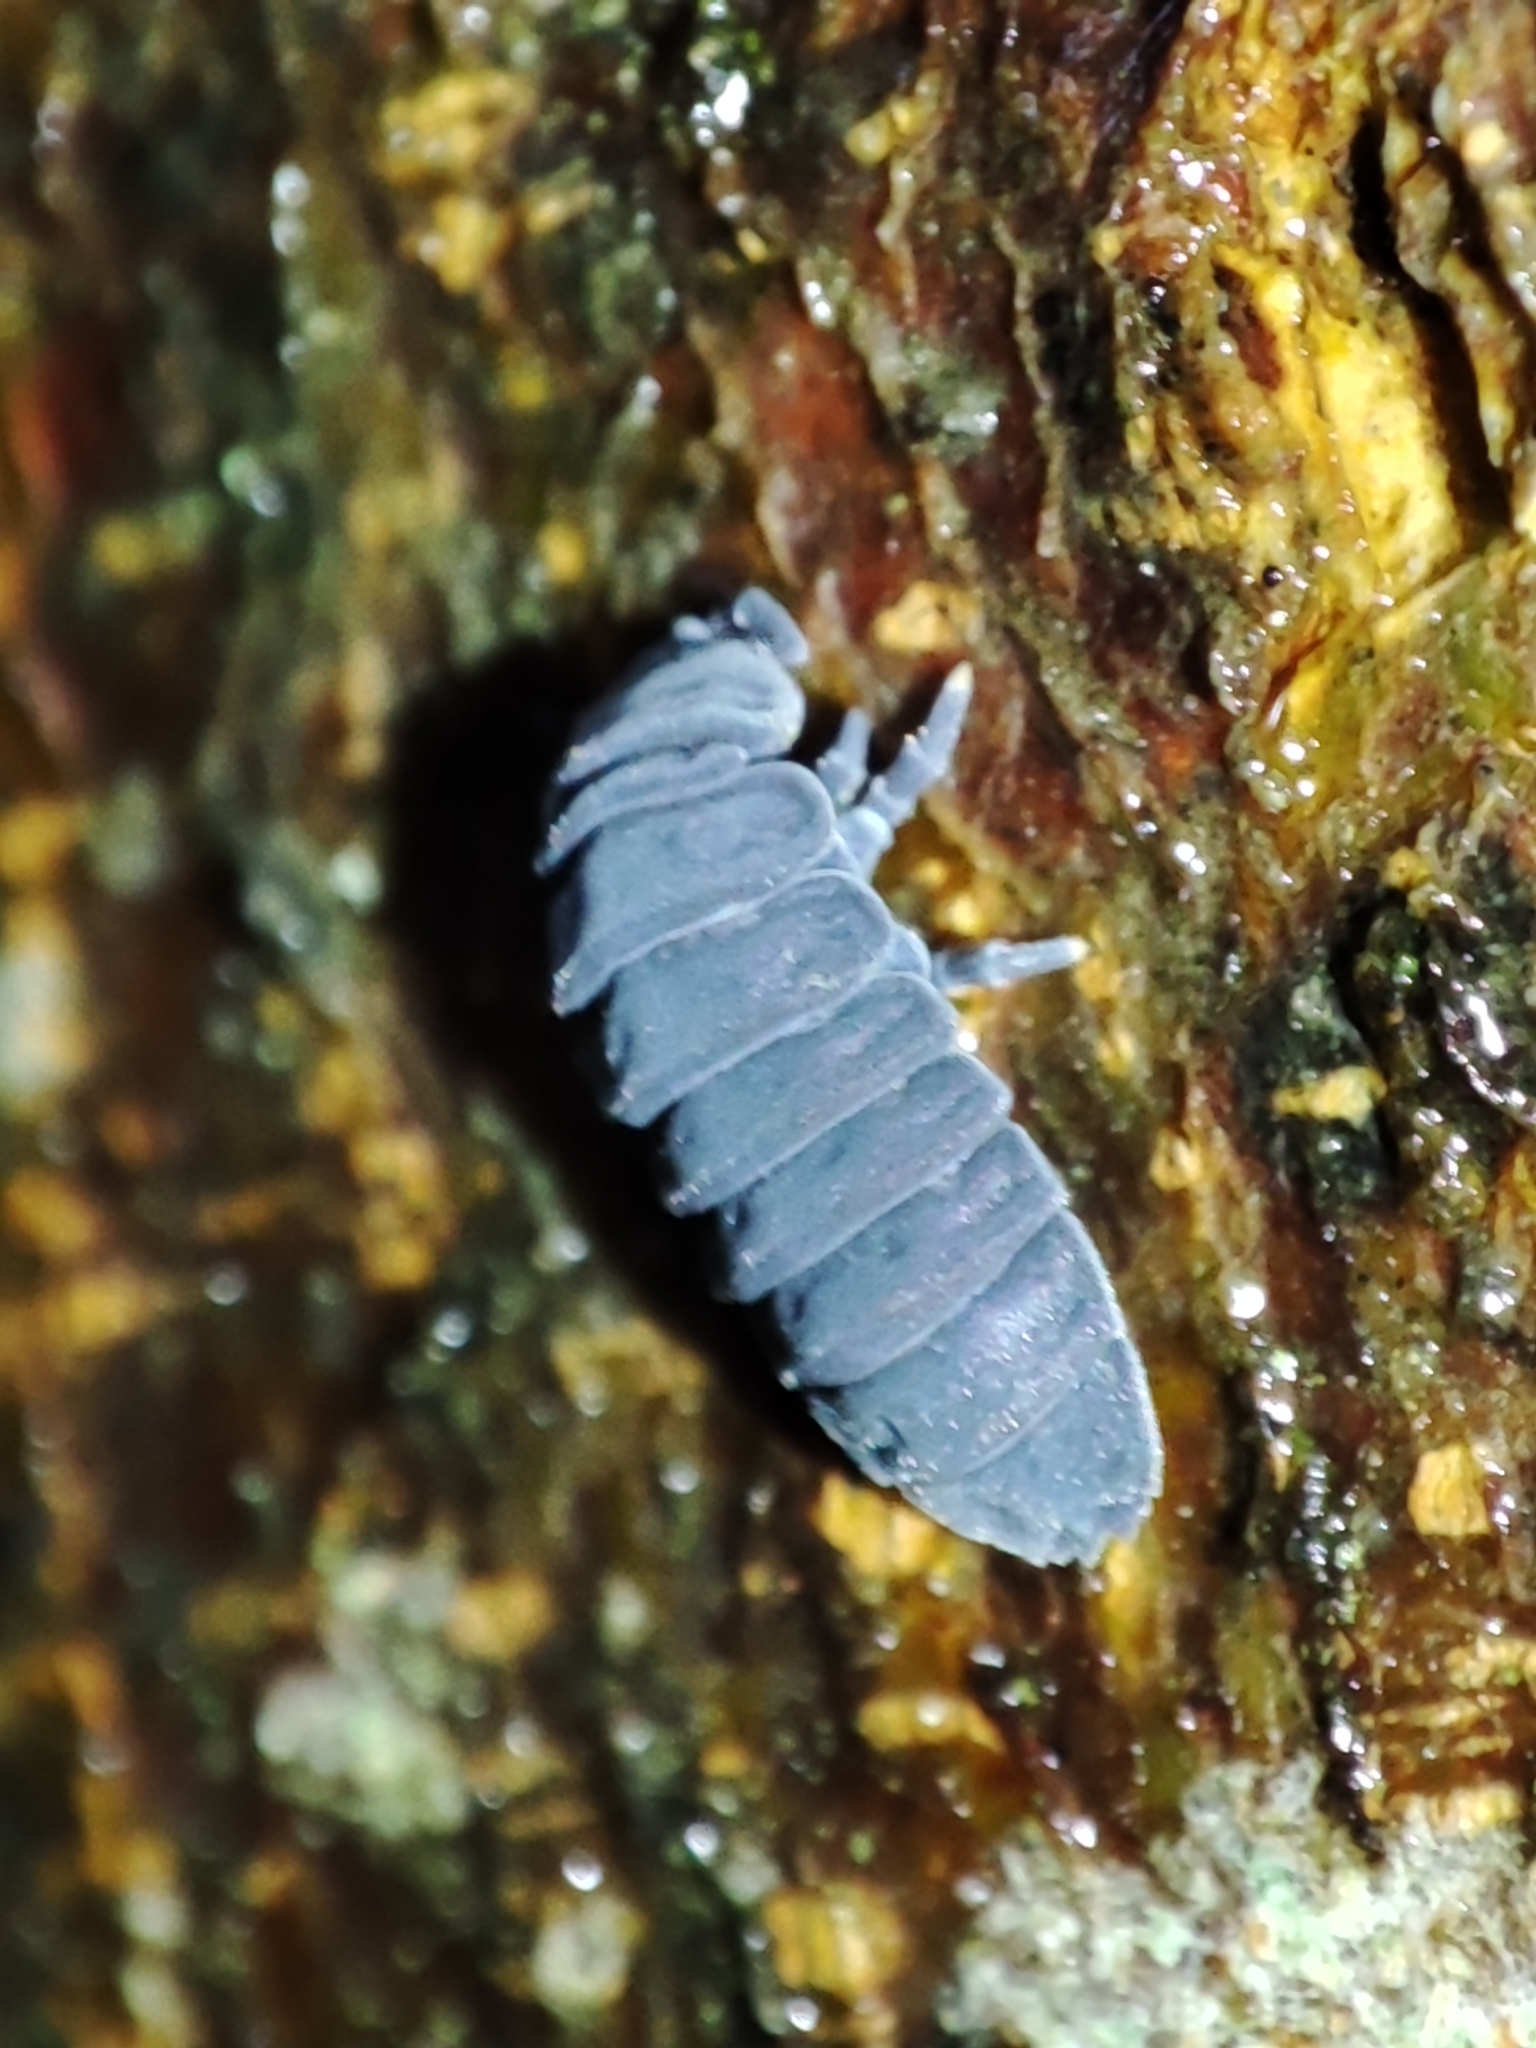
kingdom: Animalia
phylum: Arthropoda
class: Collembola
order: Poduromorpha
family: Onychiuridae
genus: Tetrodontophora
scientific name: Tetrodontophora bielanensis
